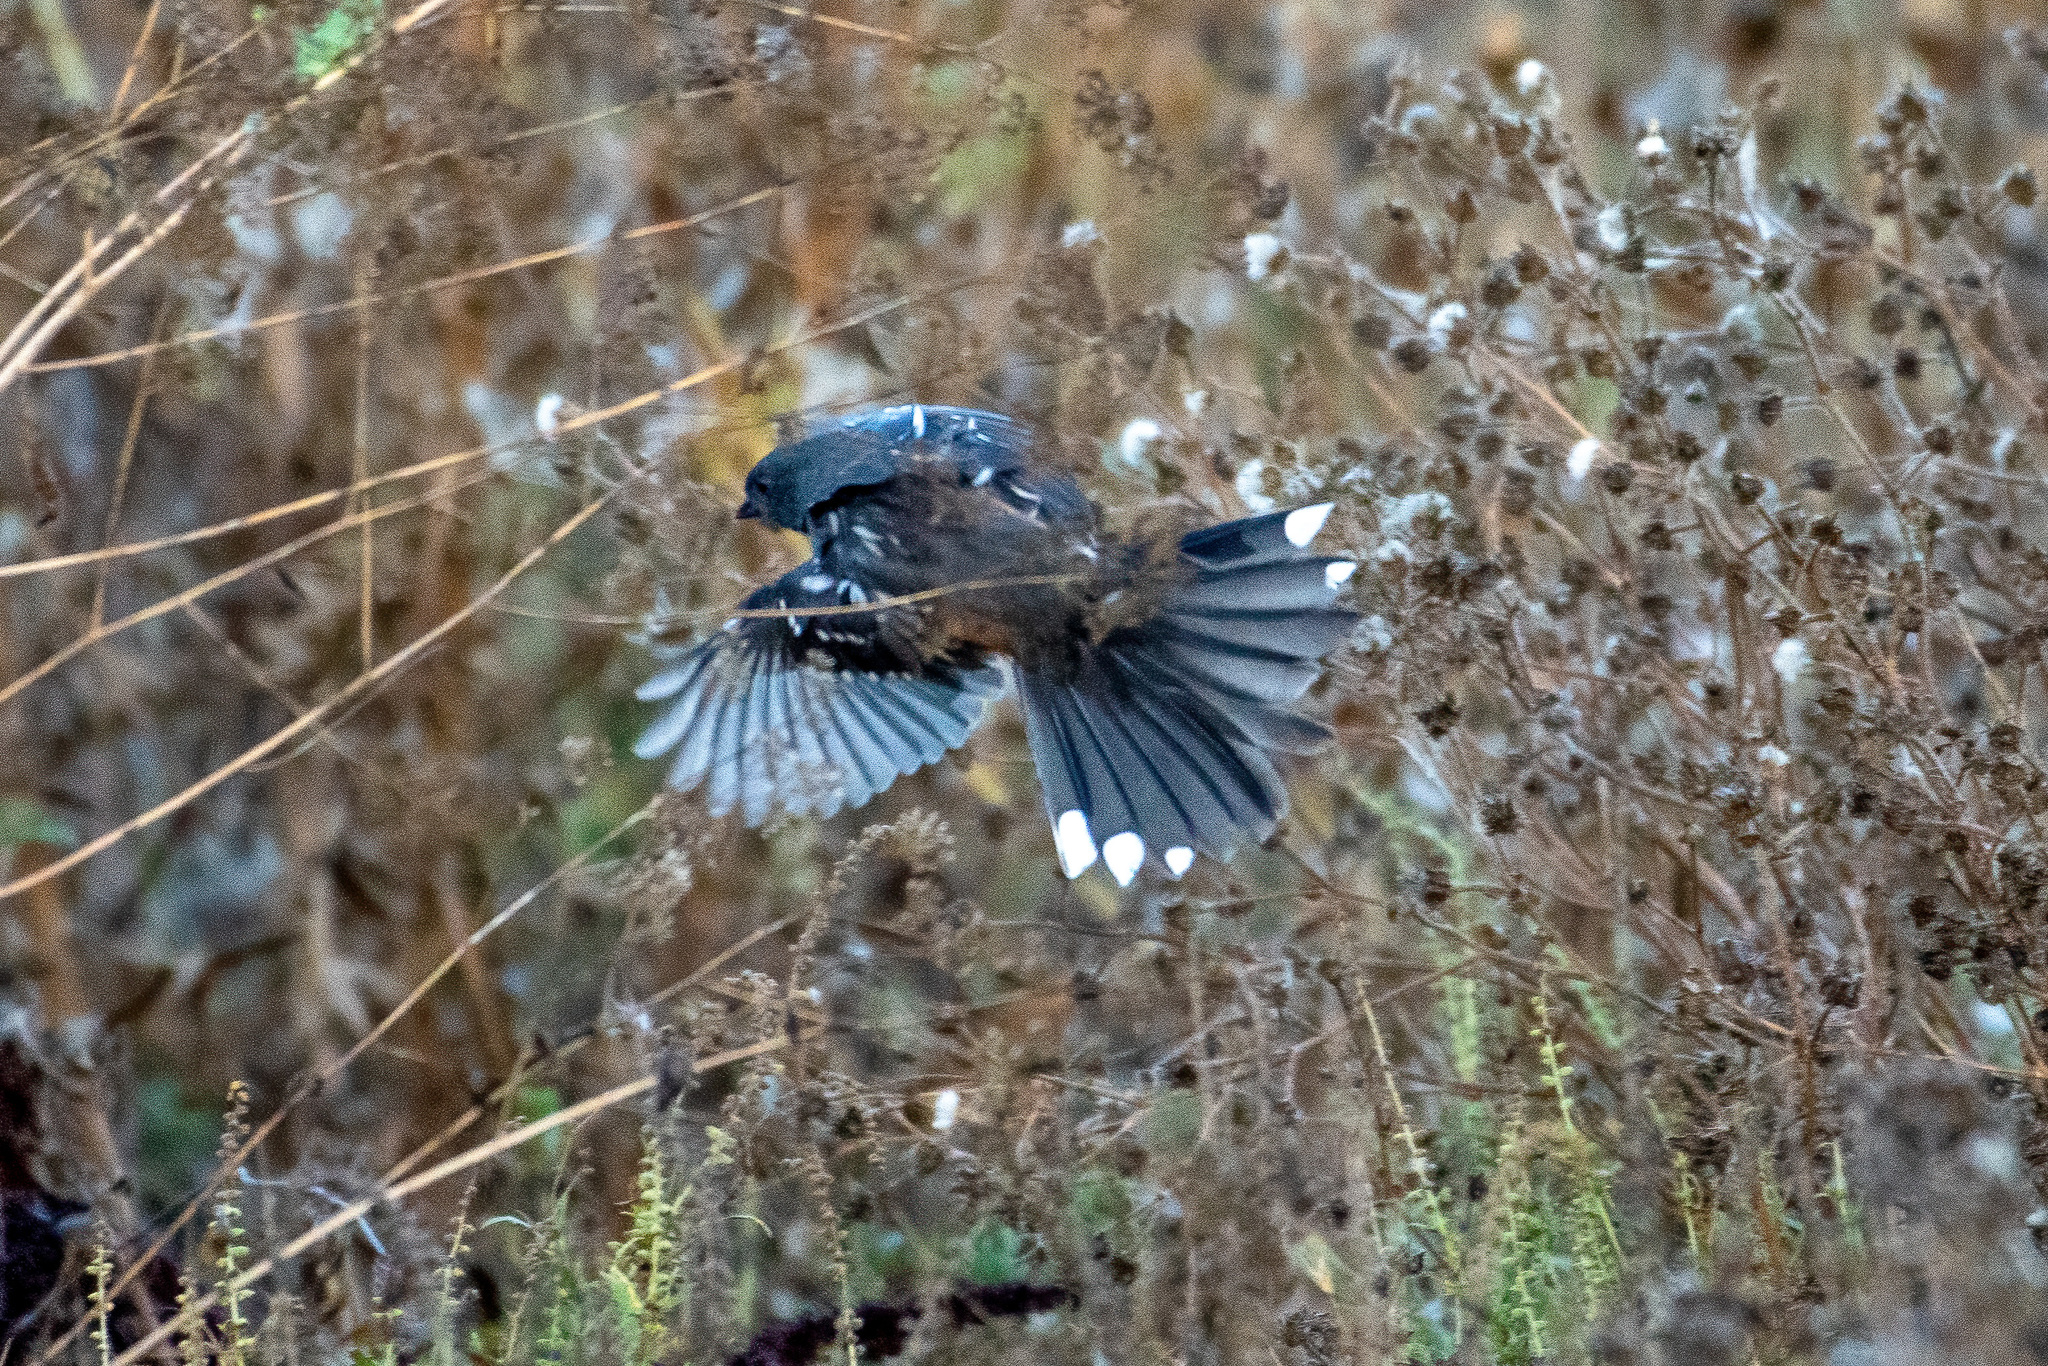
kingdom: Animalia
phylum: Chordata
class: Aves
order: Passeriformes
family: Passerellidae
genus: Pipilo
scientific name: Pipilo maculatus
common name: Spotted towhee
